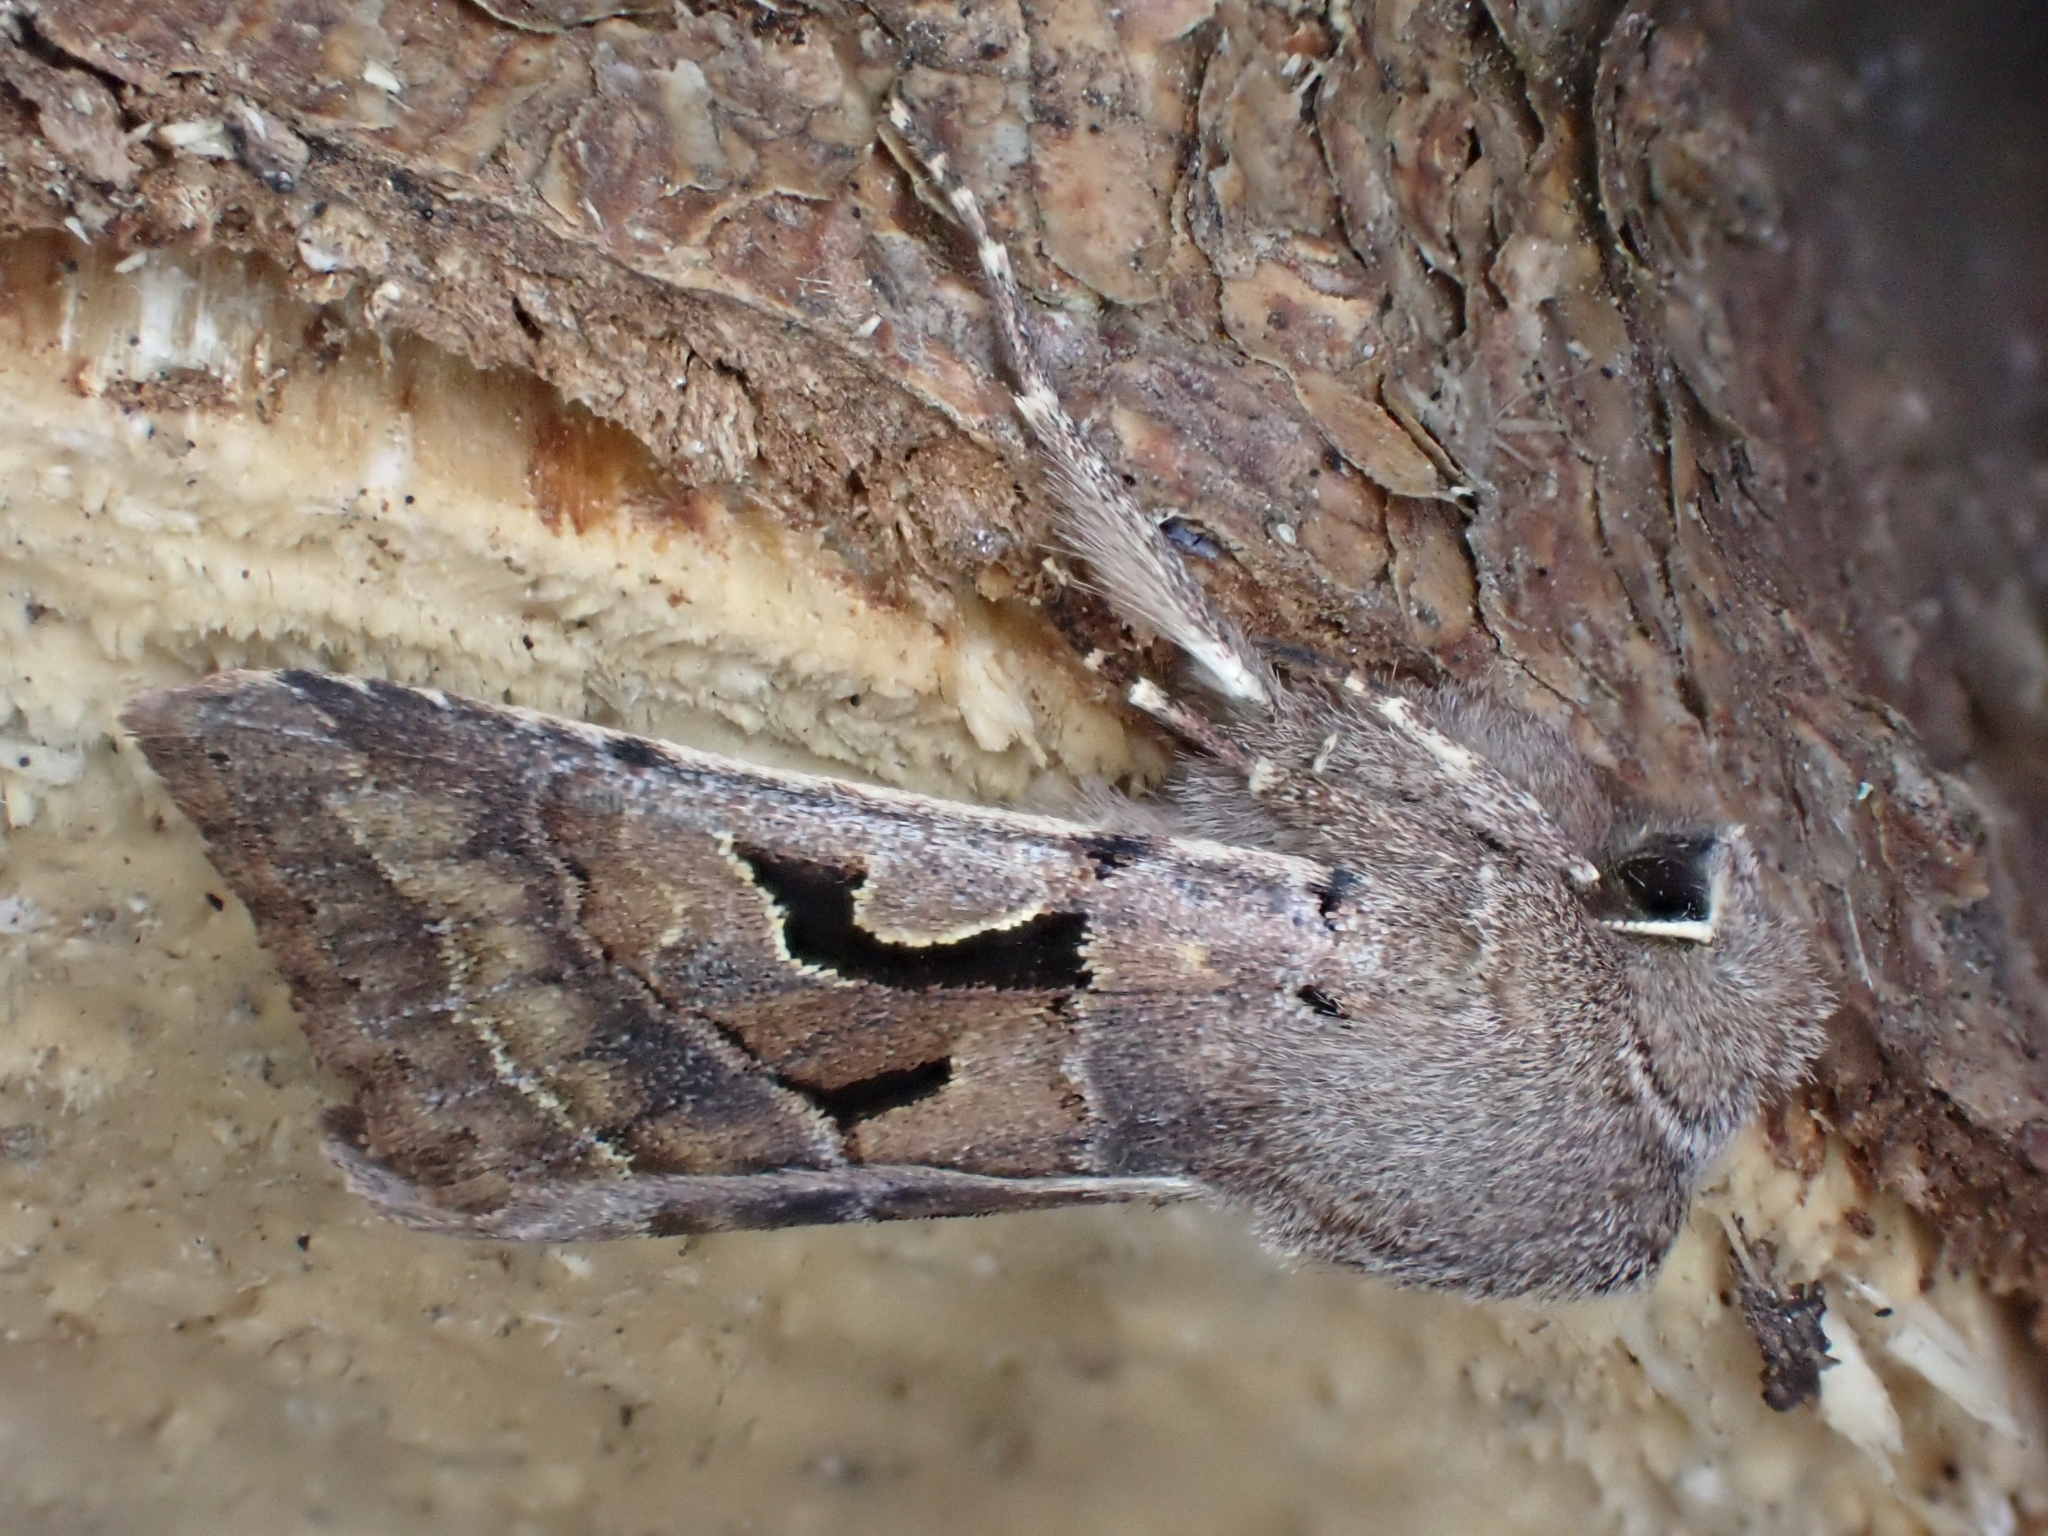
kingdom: Animalia
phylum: Arthropoda
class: Insecta
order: Lepidoptera
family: Noctuidae
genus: Orthosia
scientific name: Orthosia gothica
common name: Hebrew character
